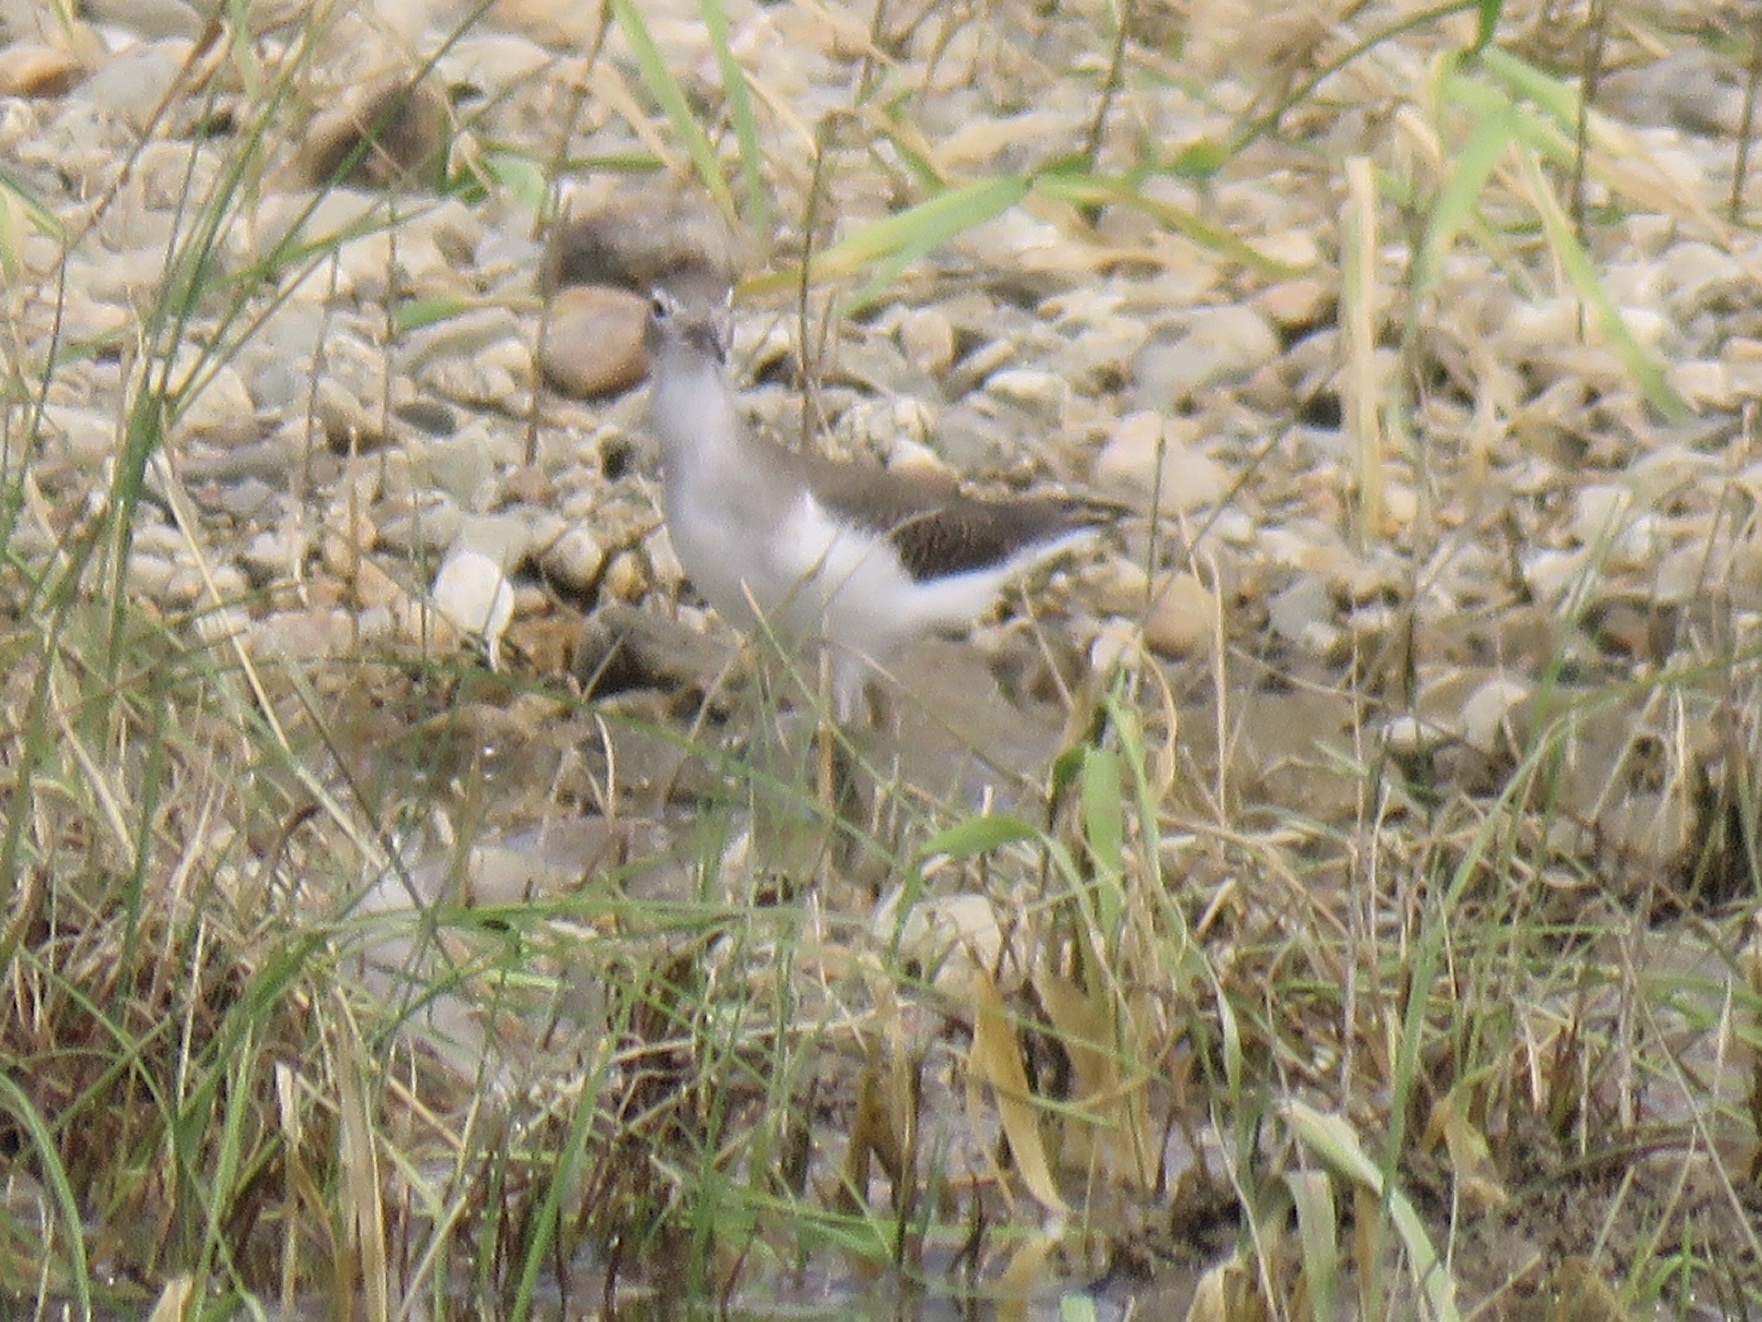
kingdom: Animalia
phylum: Chordata
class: Aves
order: Charadriiformes
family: Scolopacidae
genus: Actitis
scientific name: Actitis macularius
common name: Spotted sandpiper
